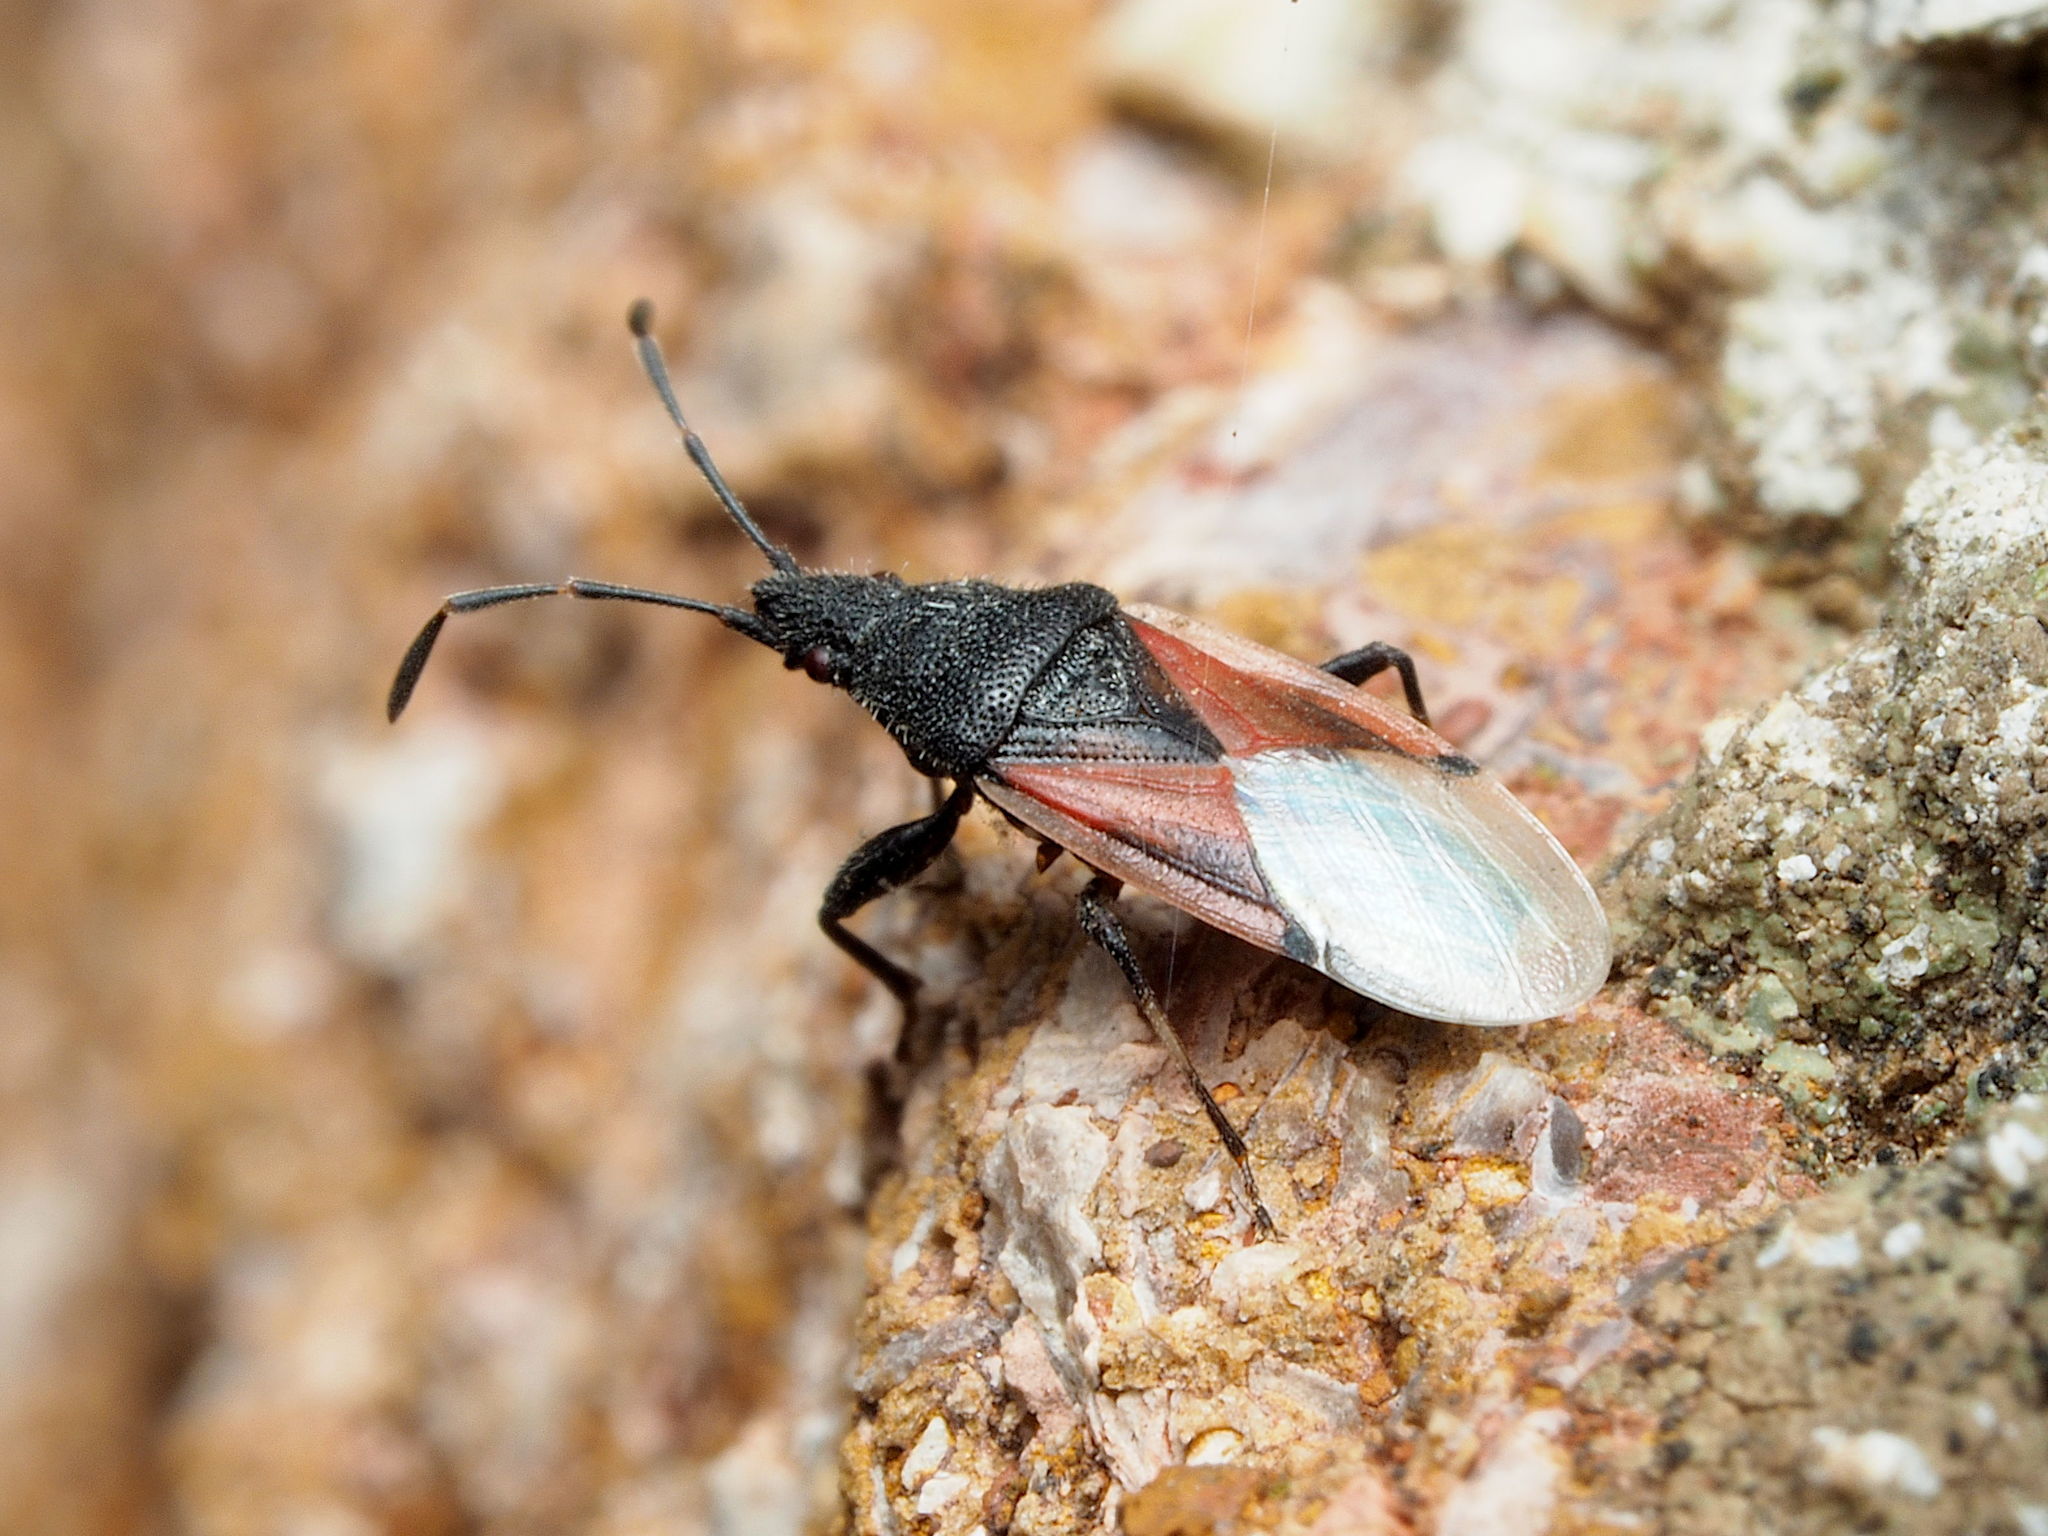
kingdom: Animalia
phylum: Arthropoda
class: Insecta
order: Hemiptera
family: Oxycarenidae
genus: Oxycarenus
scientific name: Oxycarenus lavaterae
